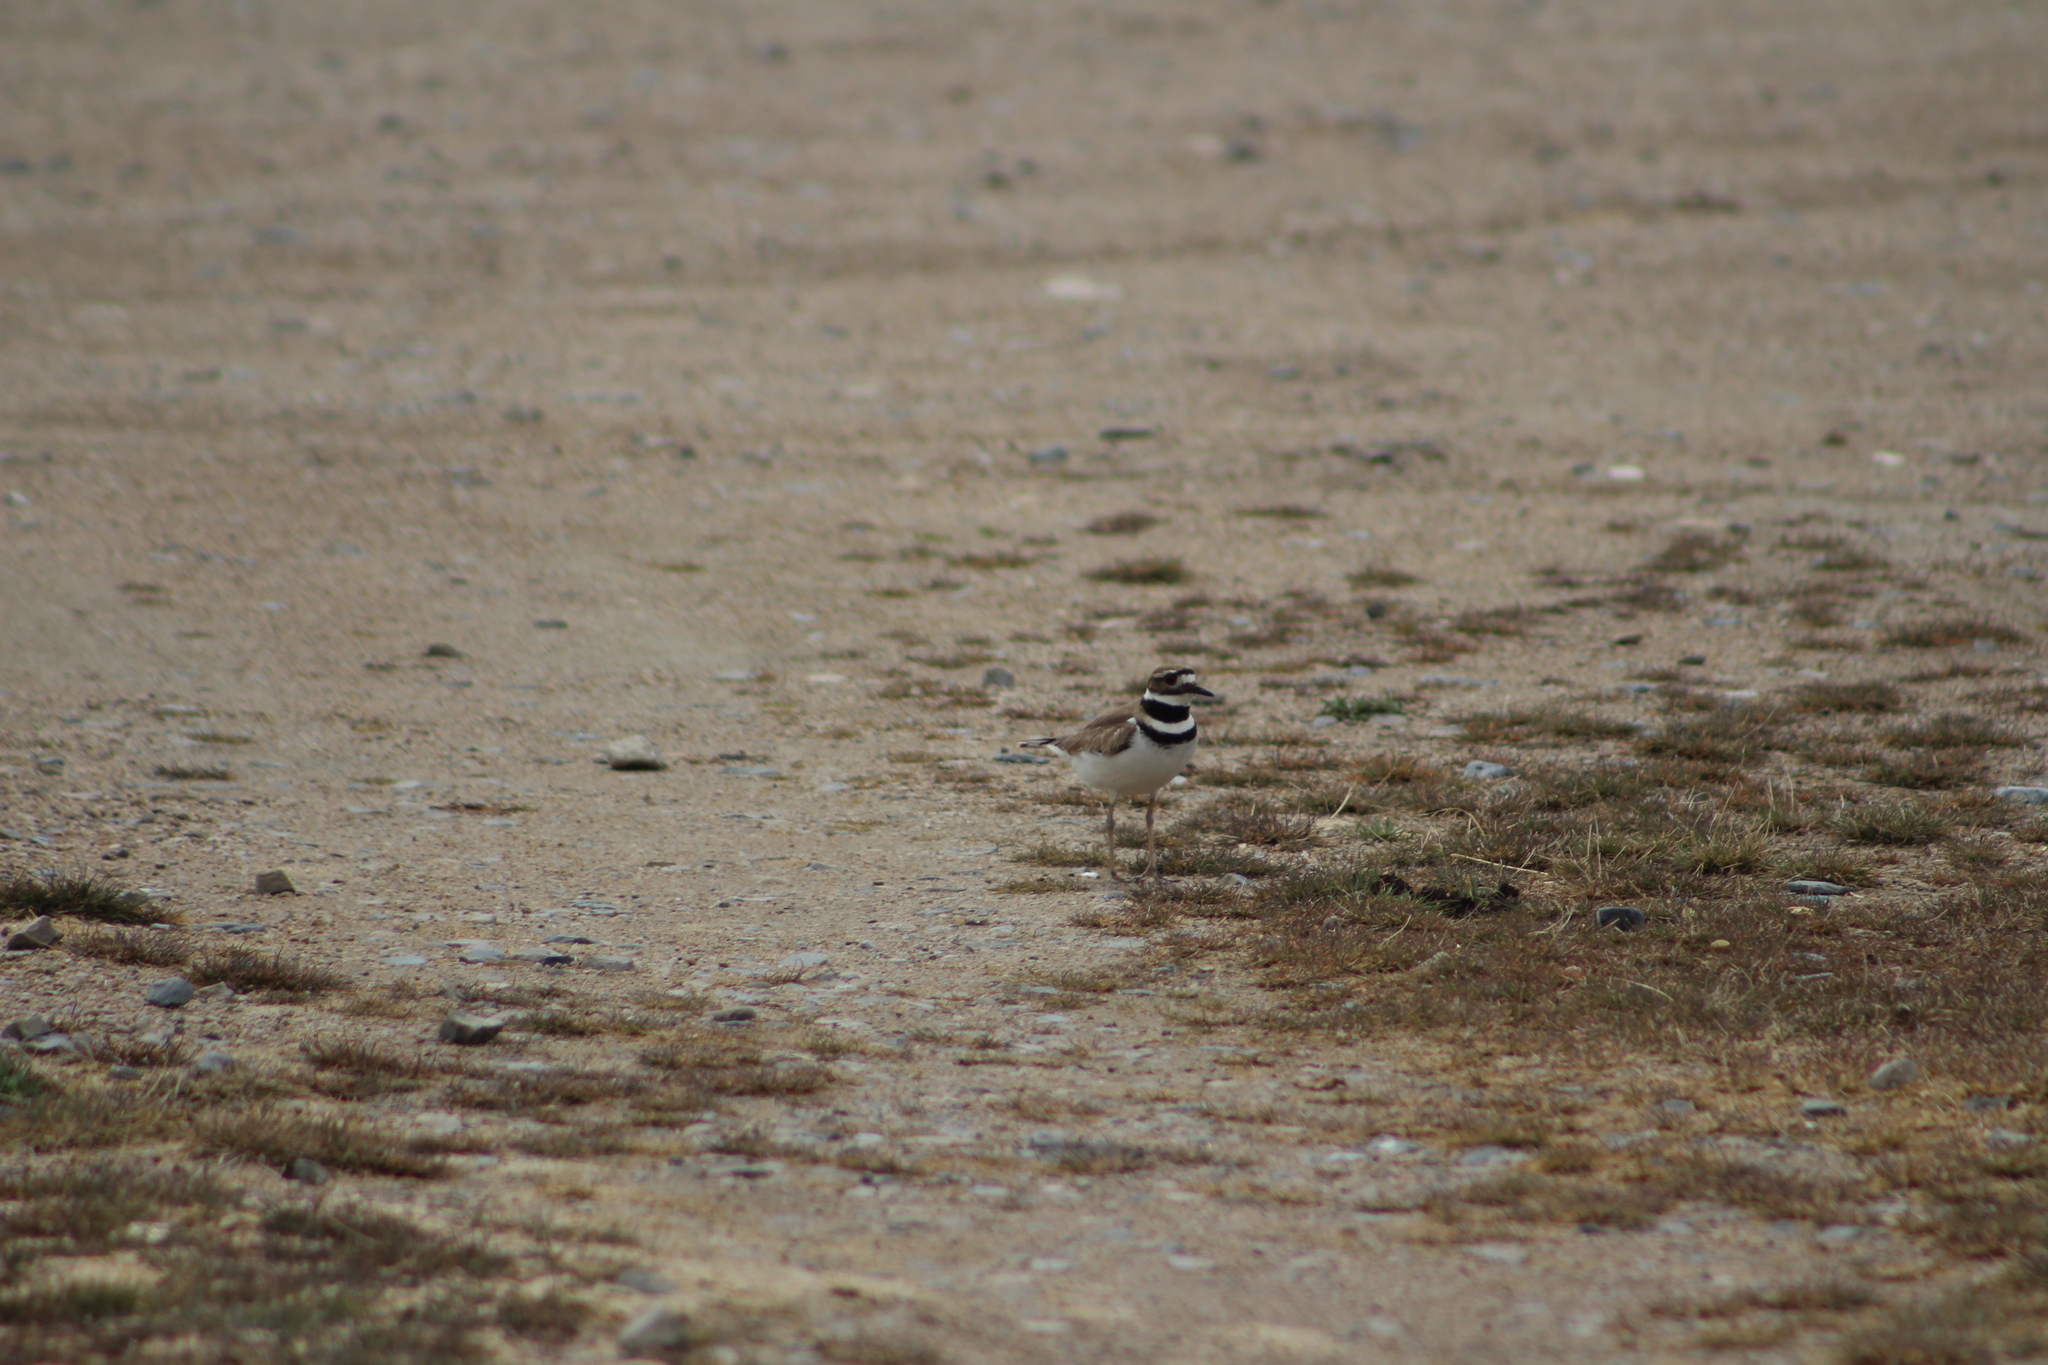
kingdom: Animalia
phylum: Chordata
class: Aves
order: Charadriiformes
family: Charadriidae
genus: Charadrius
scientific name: Charadrius vociferus
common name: Killdeer
